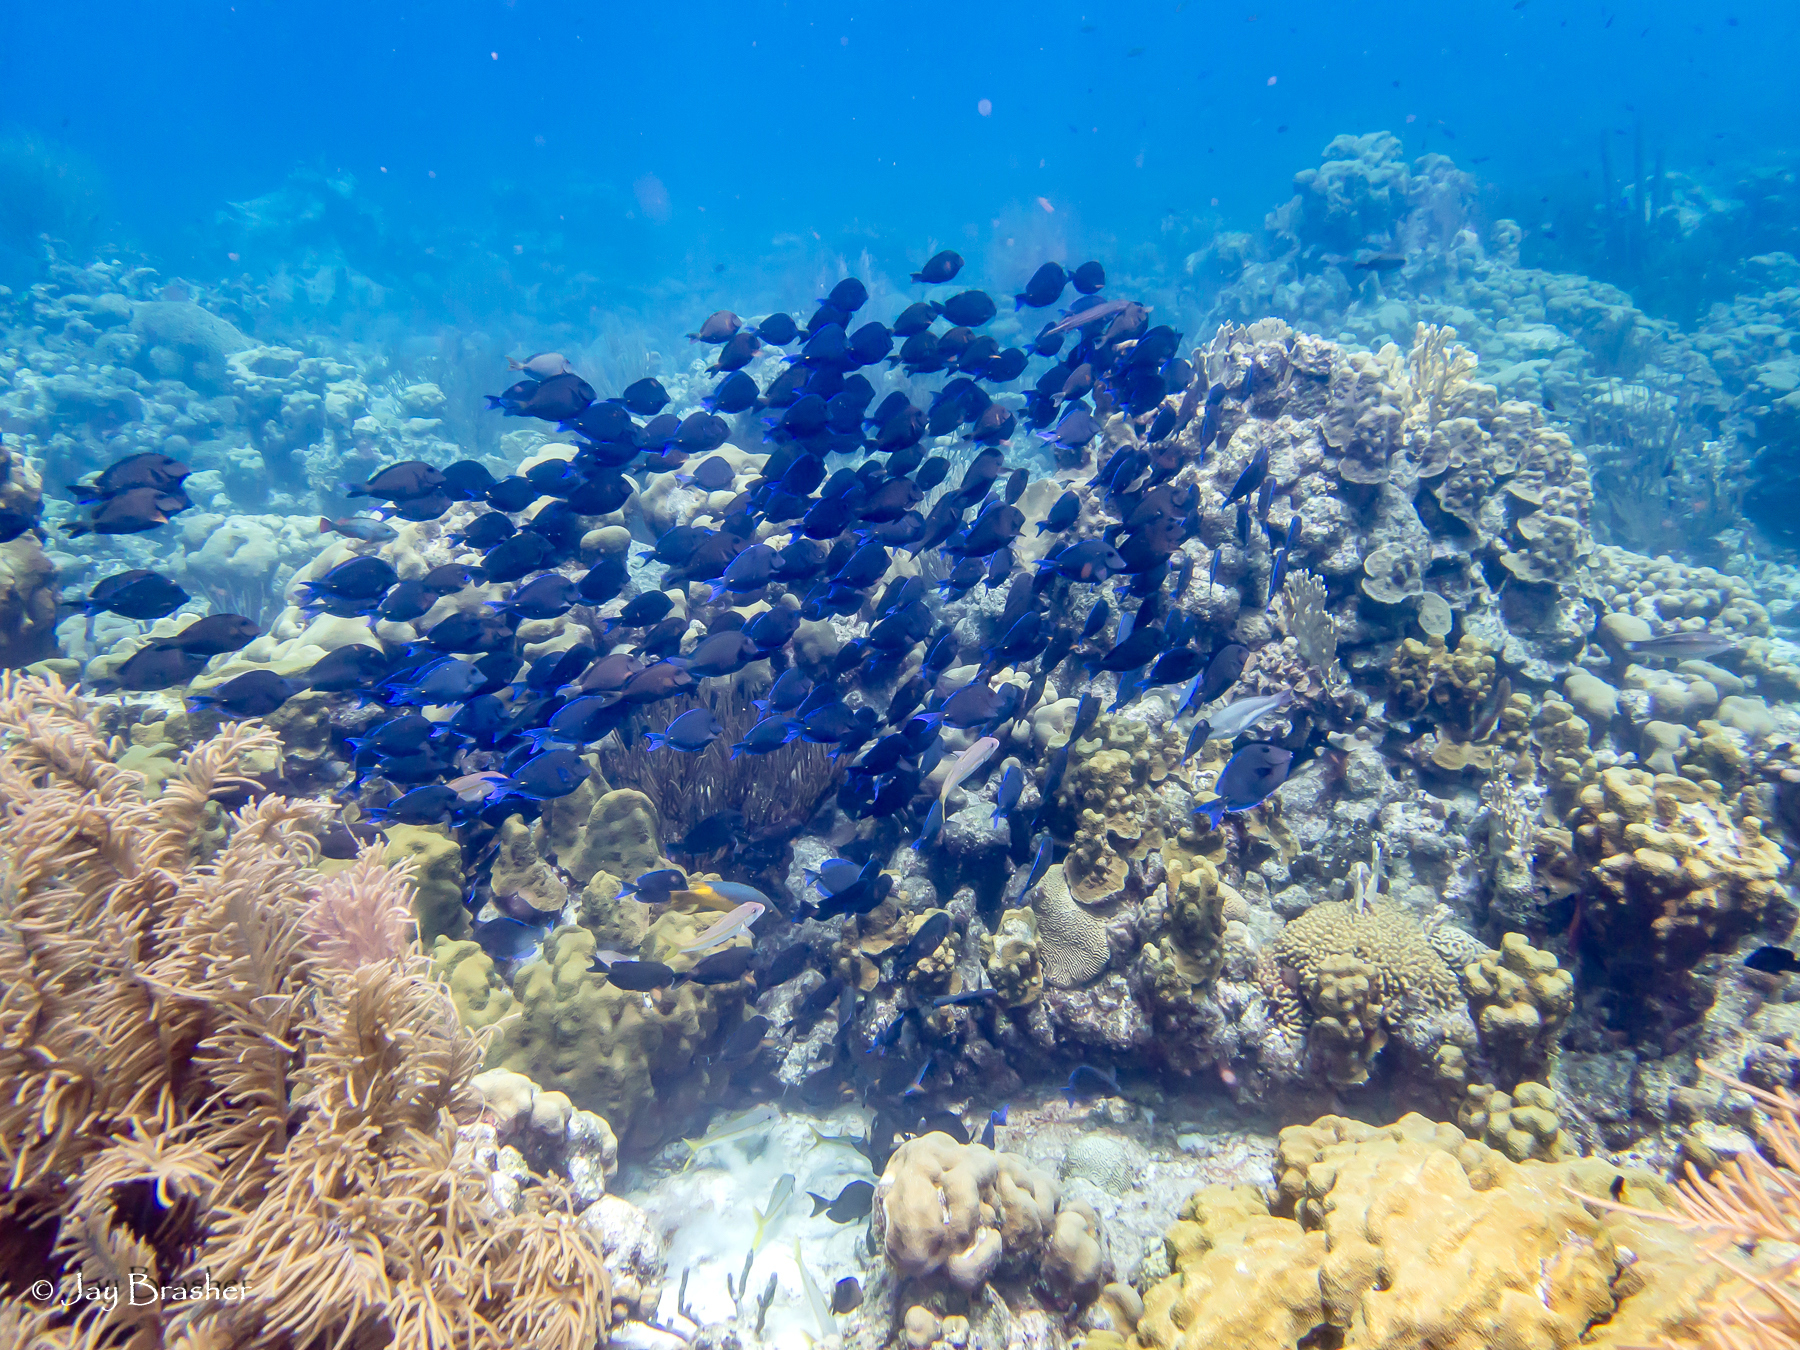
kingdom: Animalia
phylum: Chordata
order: Perciformes
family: Acanthuridae
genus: Acanthurus
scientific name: Acanthurus coeruleus
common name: Blue tang
